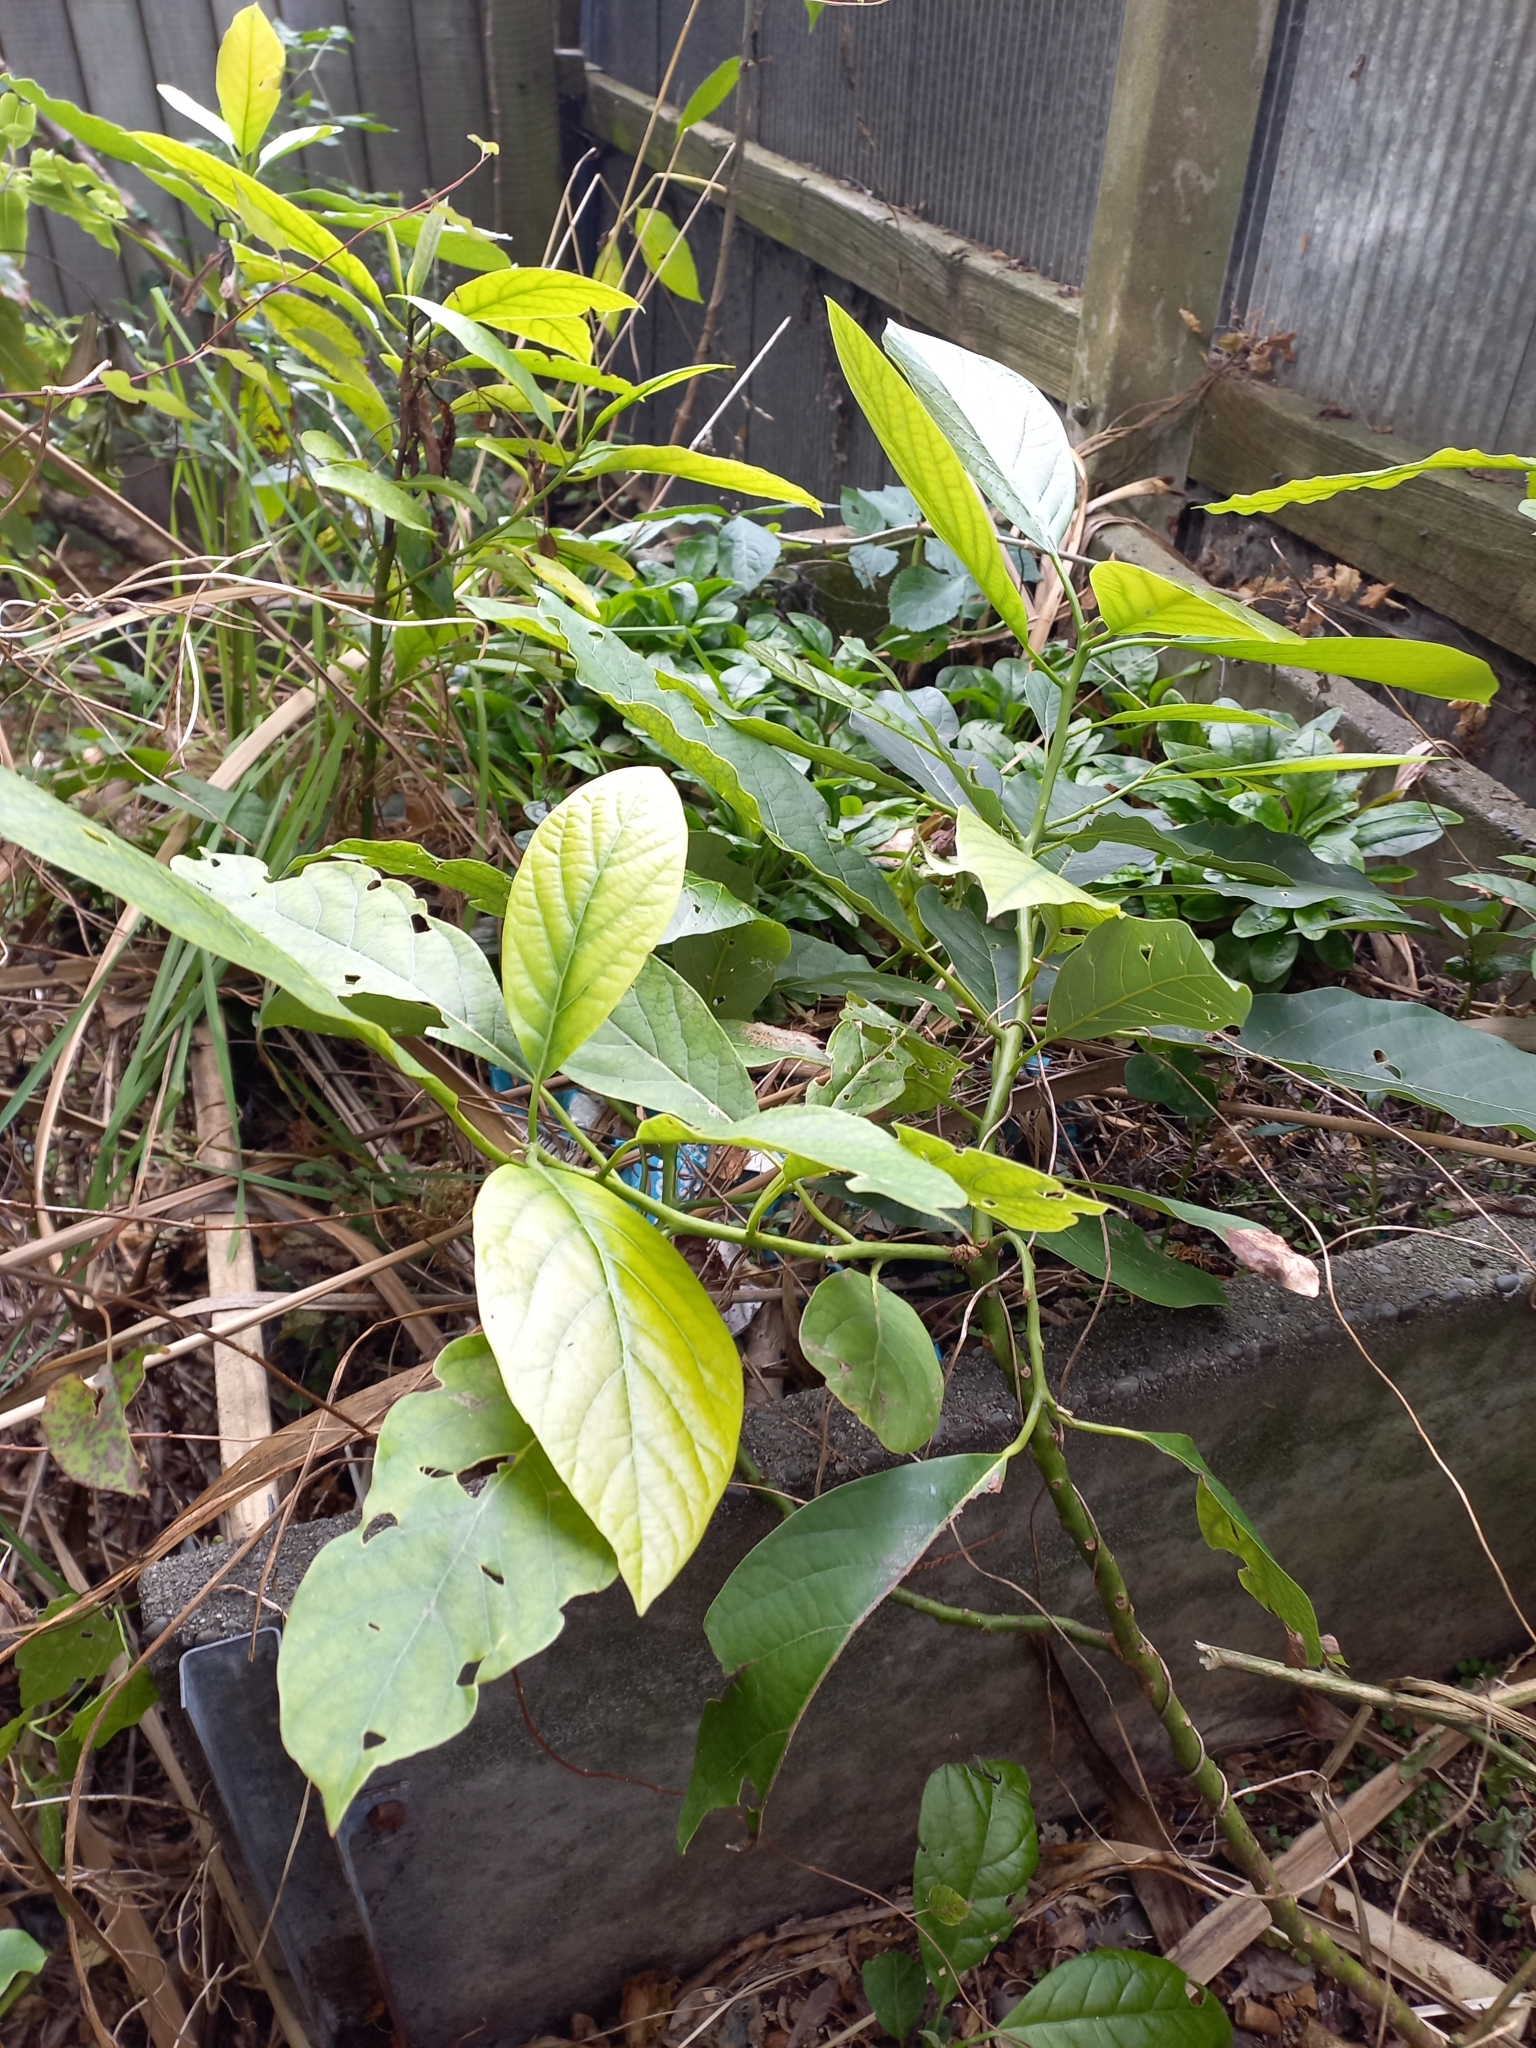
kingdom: Plantae
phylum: Tracheophyta
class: Magnoliopsida
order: Laurales
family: Lauraceae
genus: Persea
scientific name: Persea americana
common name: Avocado
